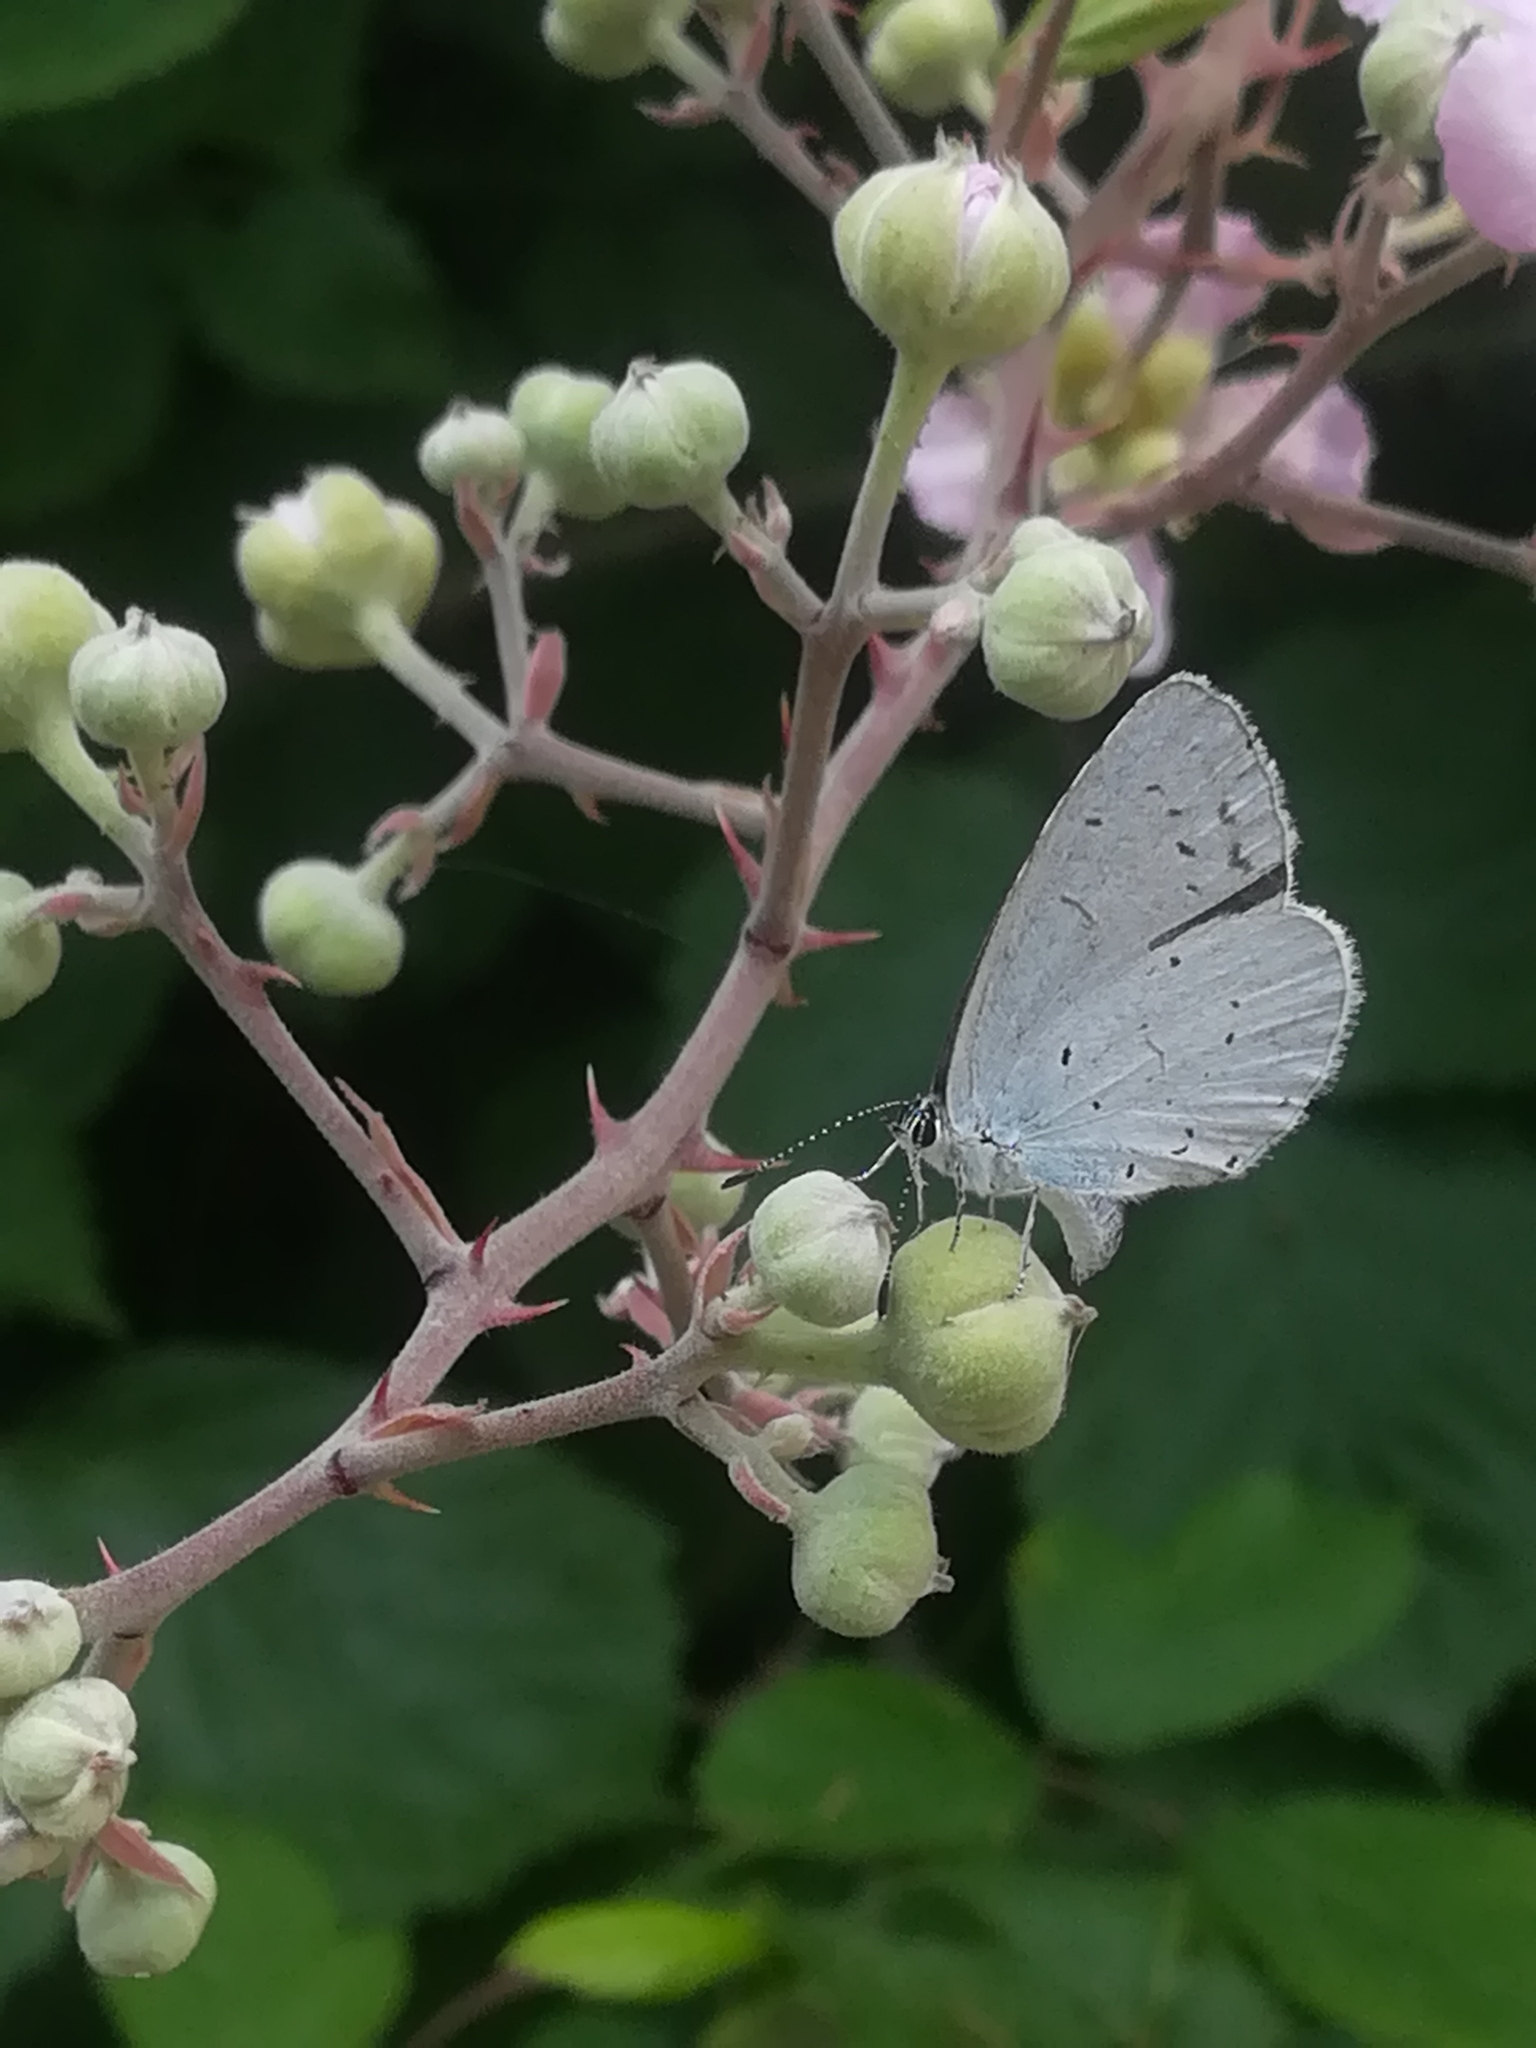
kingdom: Animalia
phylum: Arthropoda
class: Insecta
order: Lepidoptera
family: Lycaenidae
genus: Celastrina
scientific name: Celastrina argiolus
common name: Holly blue
